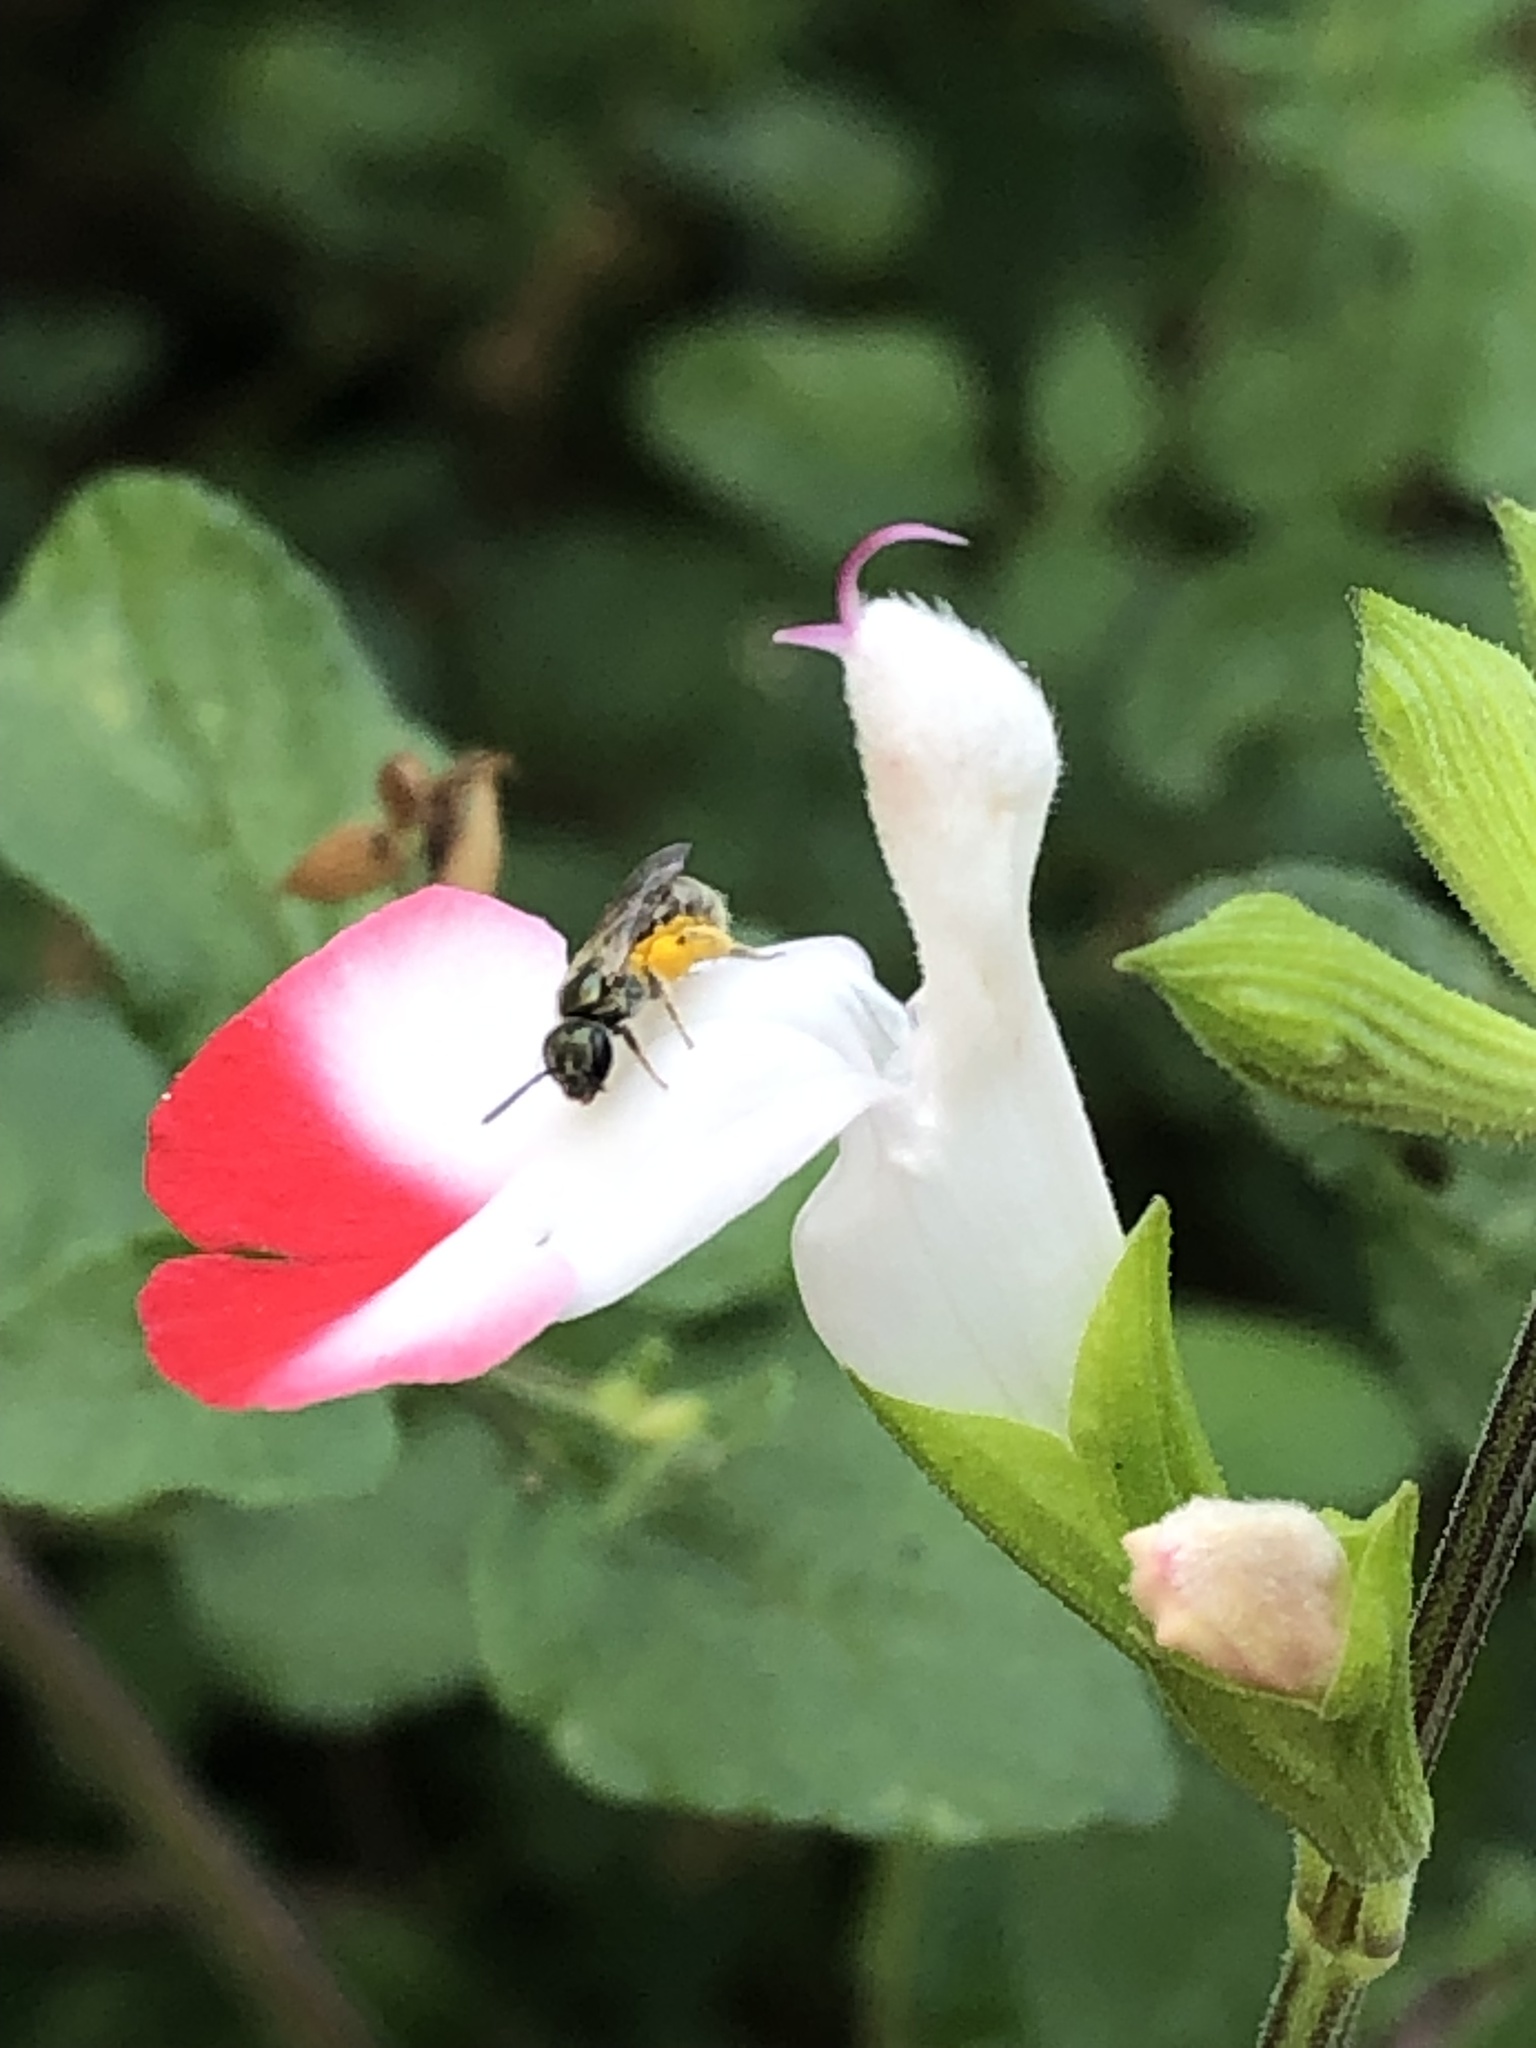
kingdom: Animalia
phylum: Arthropoda
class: Insecta
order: Hymenoptera
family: Halictidae
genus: Dialictus
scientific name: Dialictus
